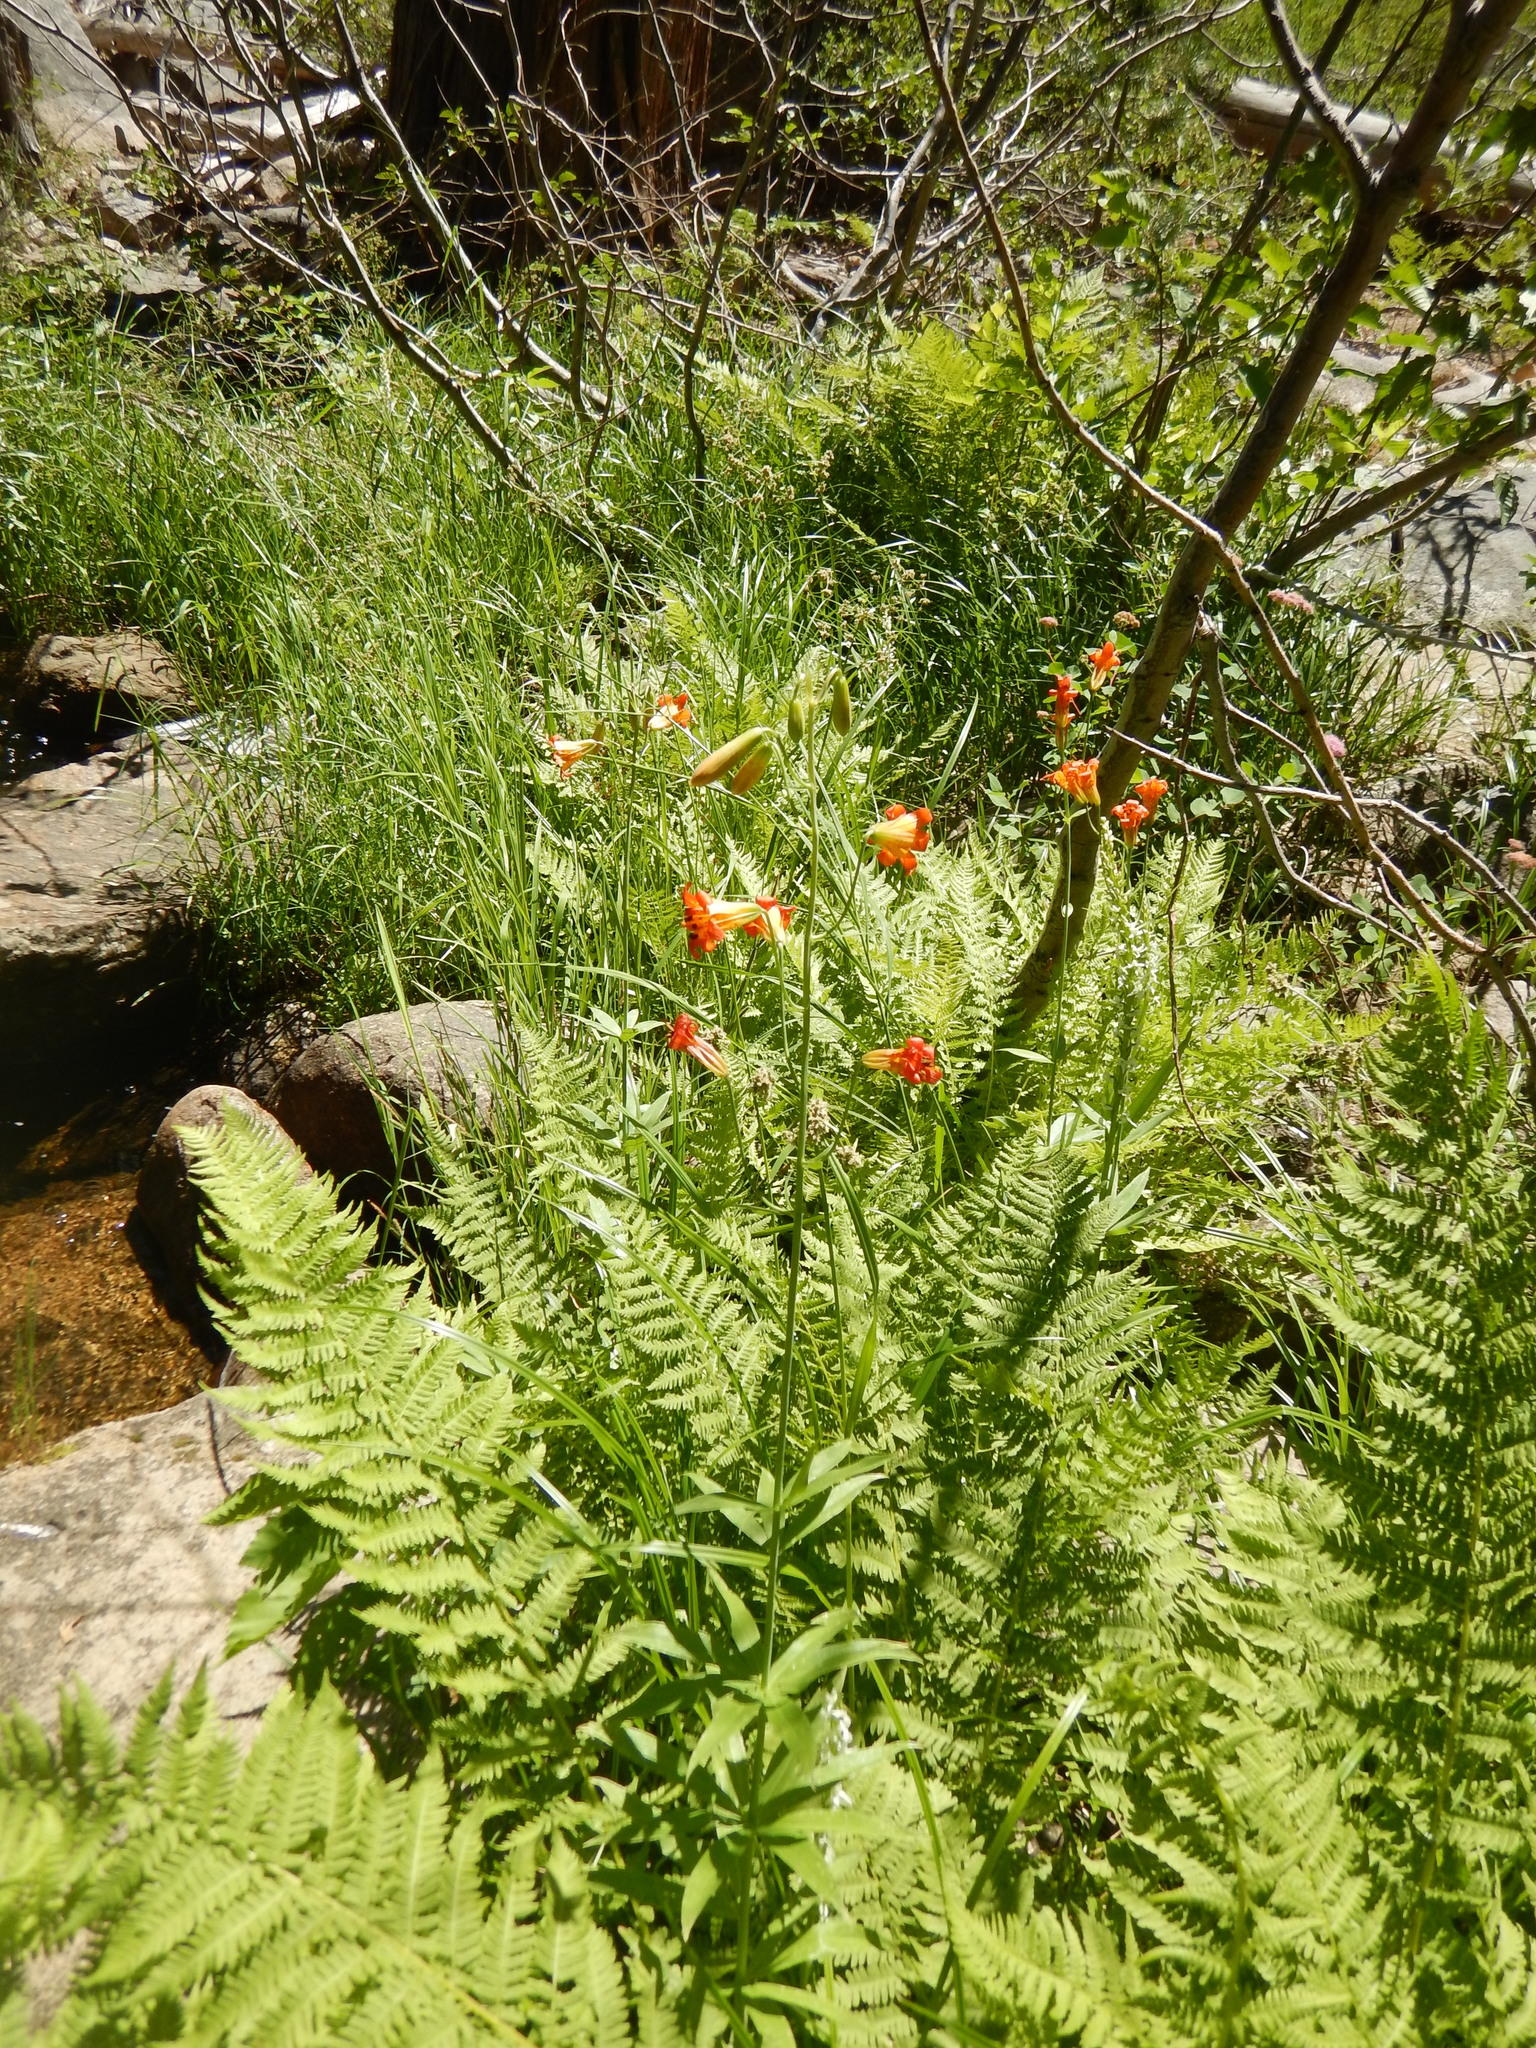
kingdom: Plantae
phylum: Tracheophyta
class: Liliopsida
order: Liliales
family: Liliaceae
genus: Lilium
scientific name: Lilium parvum
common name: Alpine lily
